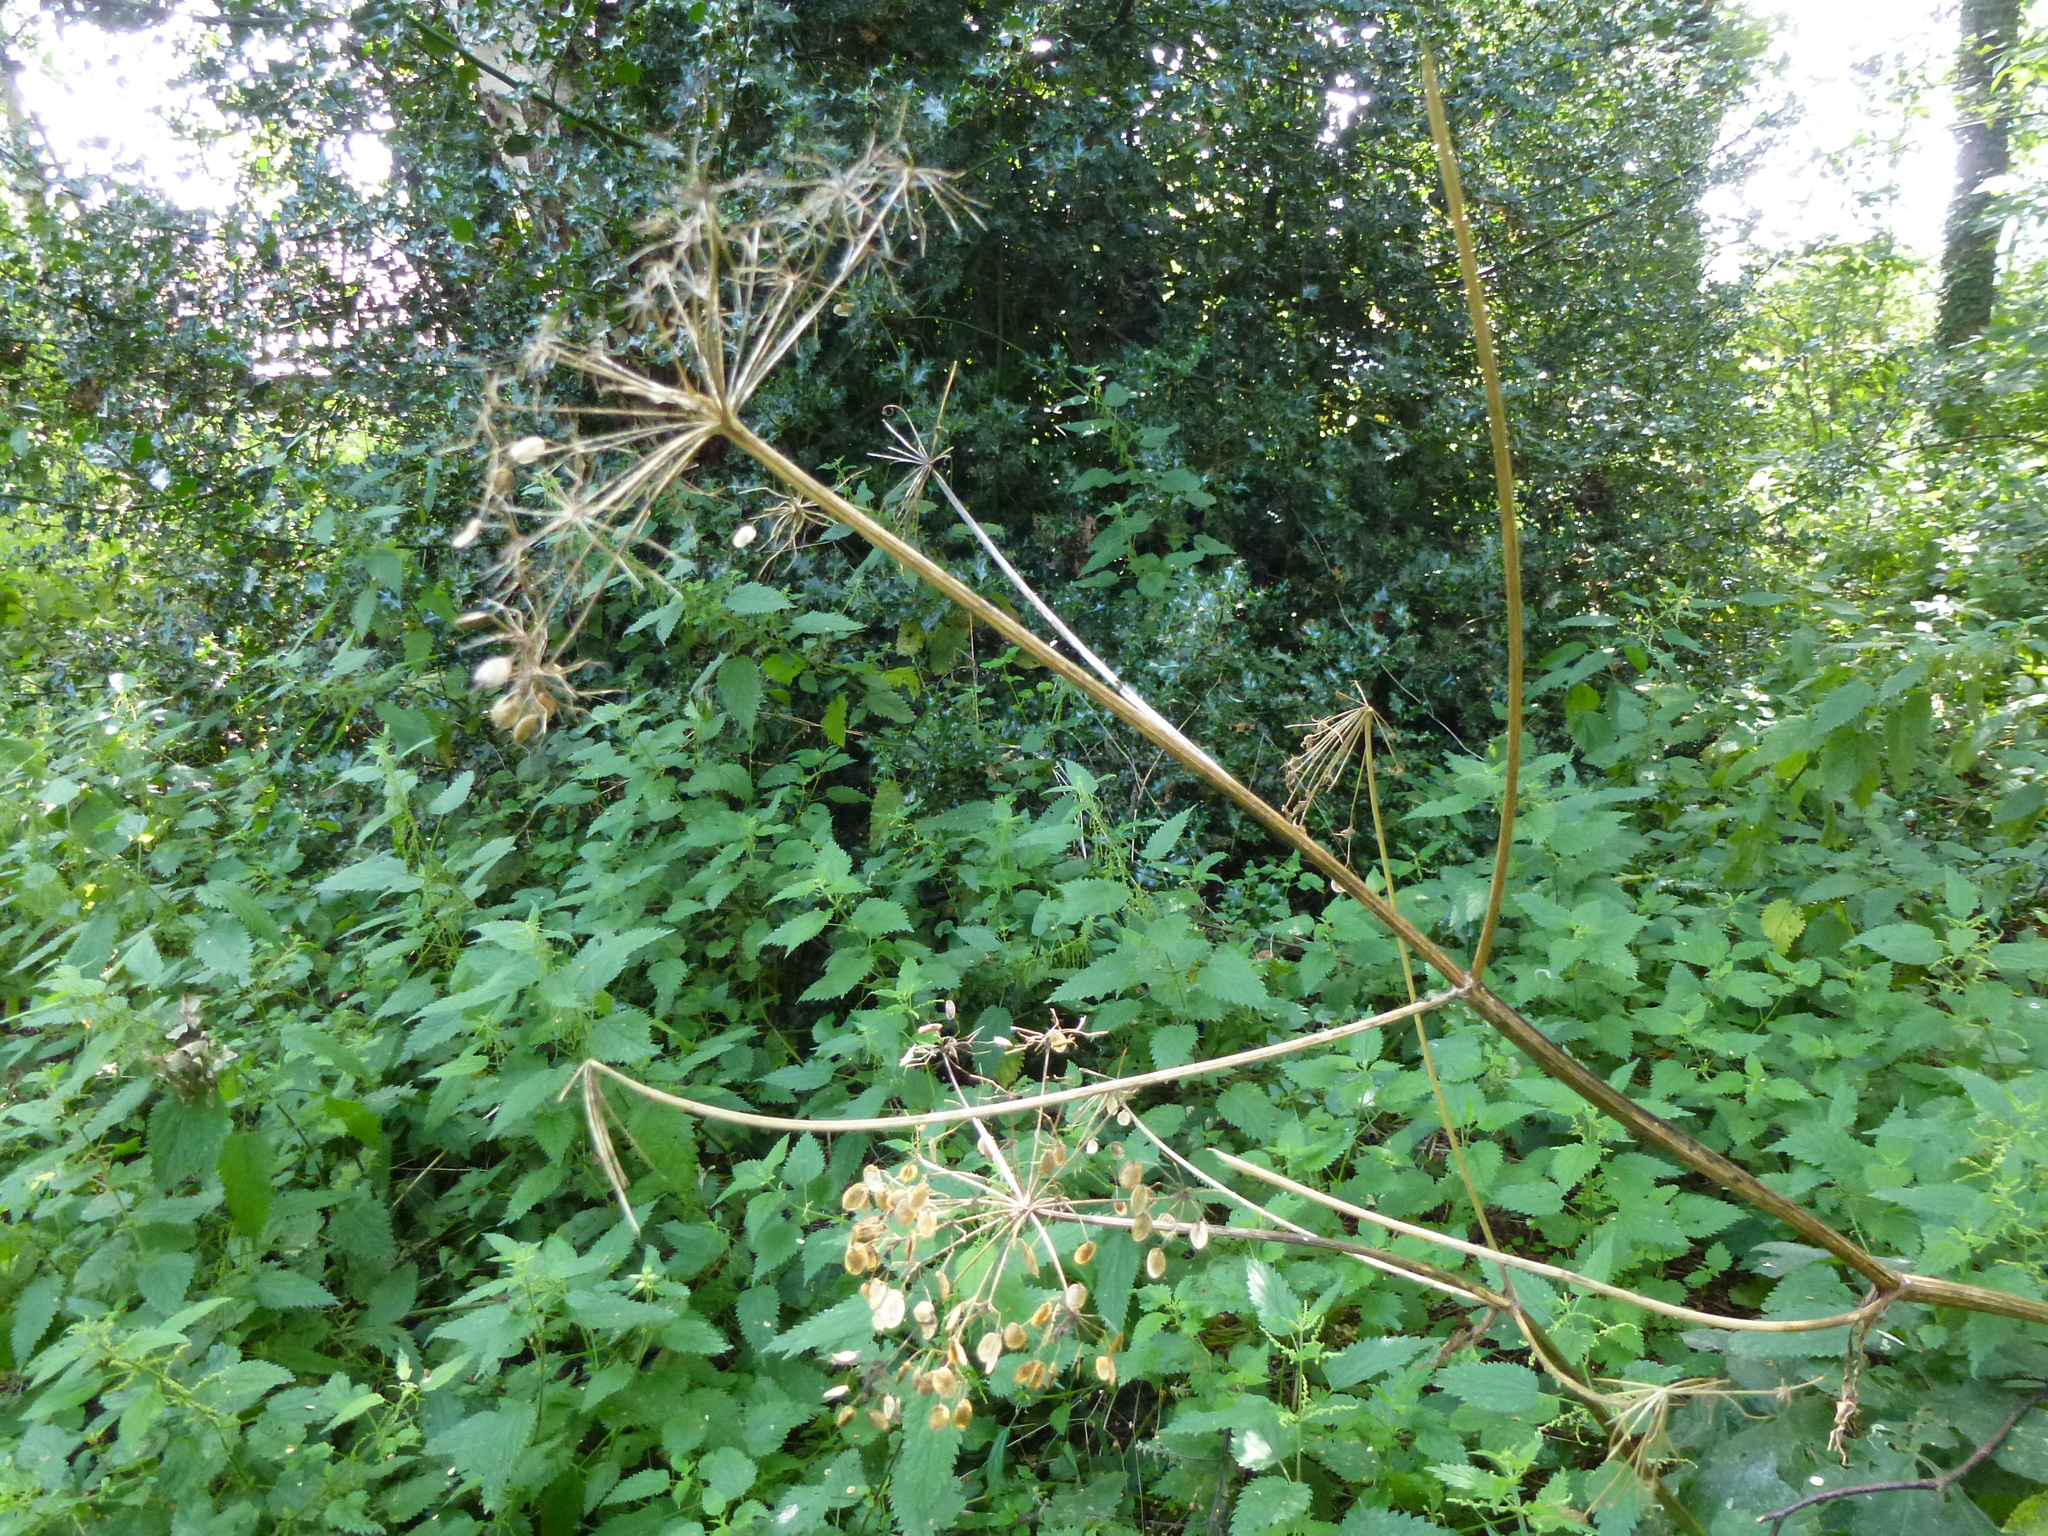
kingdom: Plantae
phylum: Tracheophyta
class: Magnoliopsida
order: Apiales
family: Apiaceae
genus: Heracleum
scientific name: Heracleum sphondylium
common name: Hogweed
